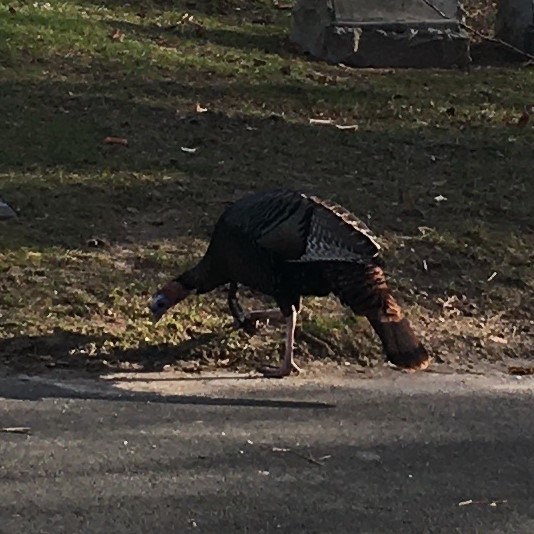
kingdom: Animalia
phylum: Chordata
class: Aves
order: Galliformes
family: Phasianidae
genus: Meleagris
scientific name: Meleagris gallopavo
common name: Wild turkey
